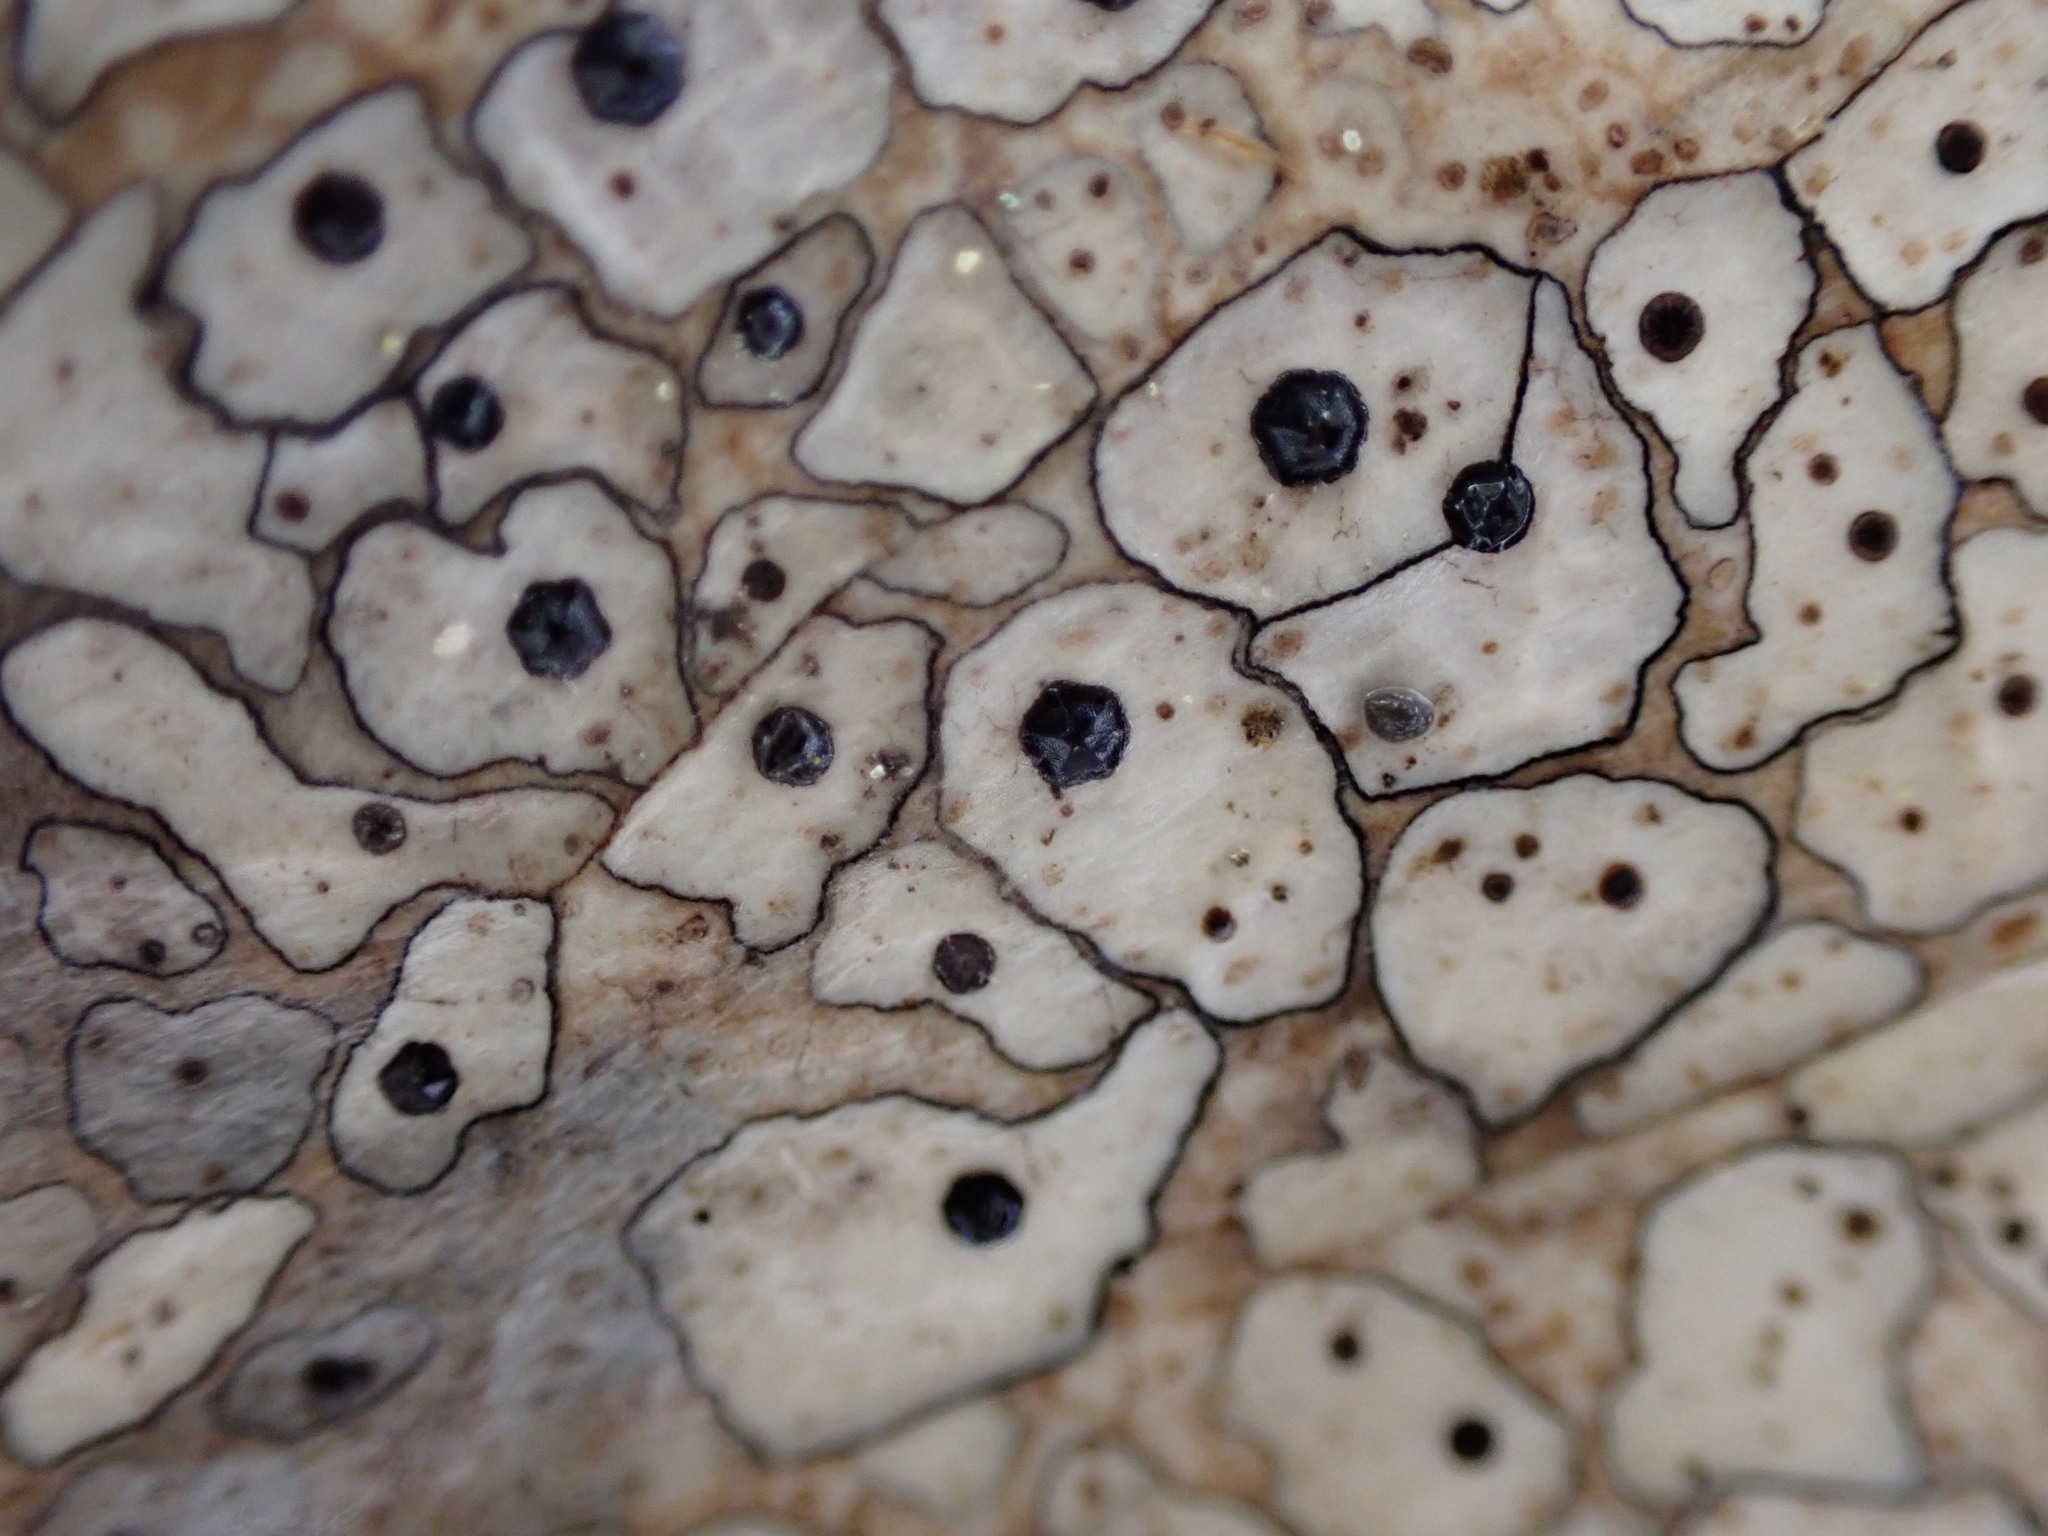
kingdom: Fungi
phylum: Ascomycota
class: Leotiomycetes
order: Rhytismatales
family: Rhytismataceae
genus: Coccomyces
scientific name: Coccomyces dentatus
